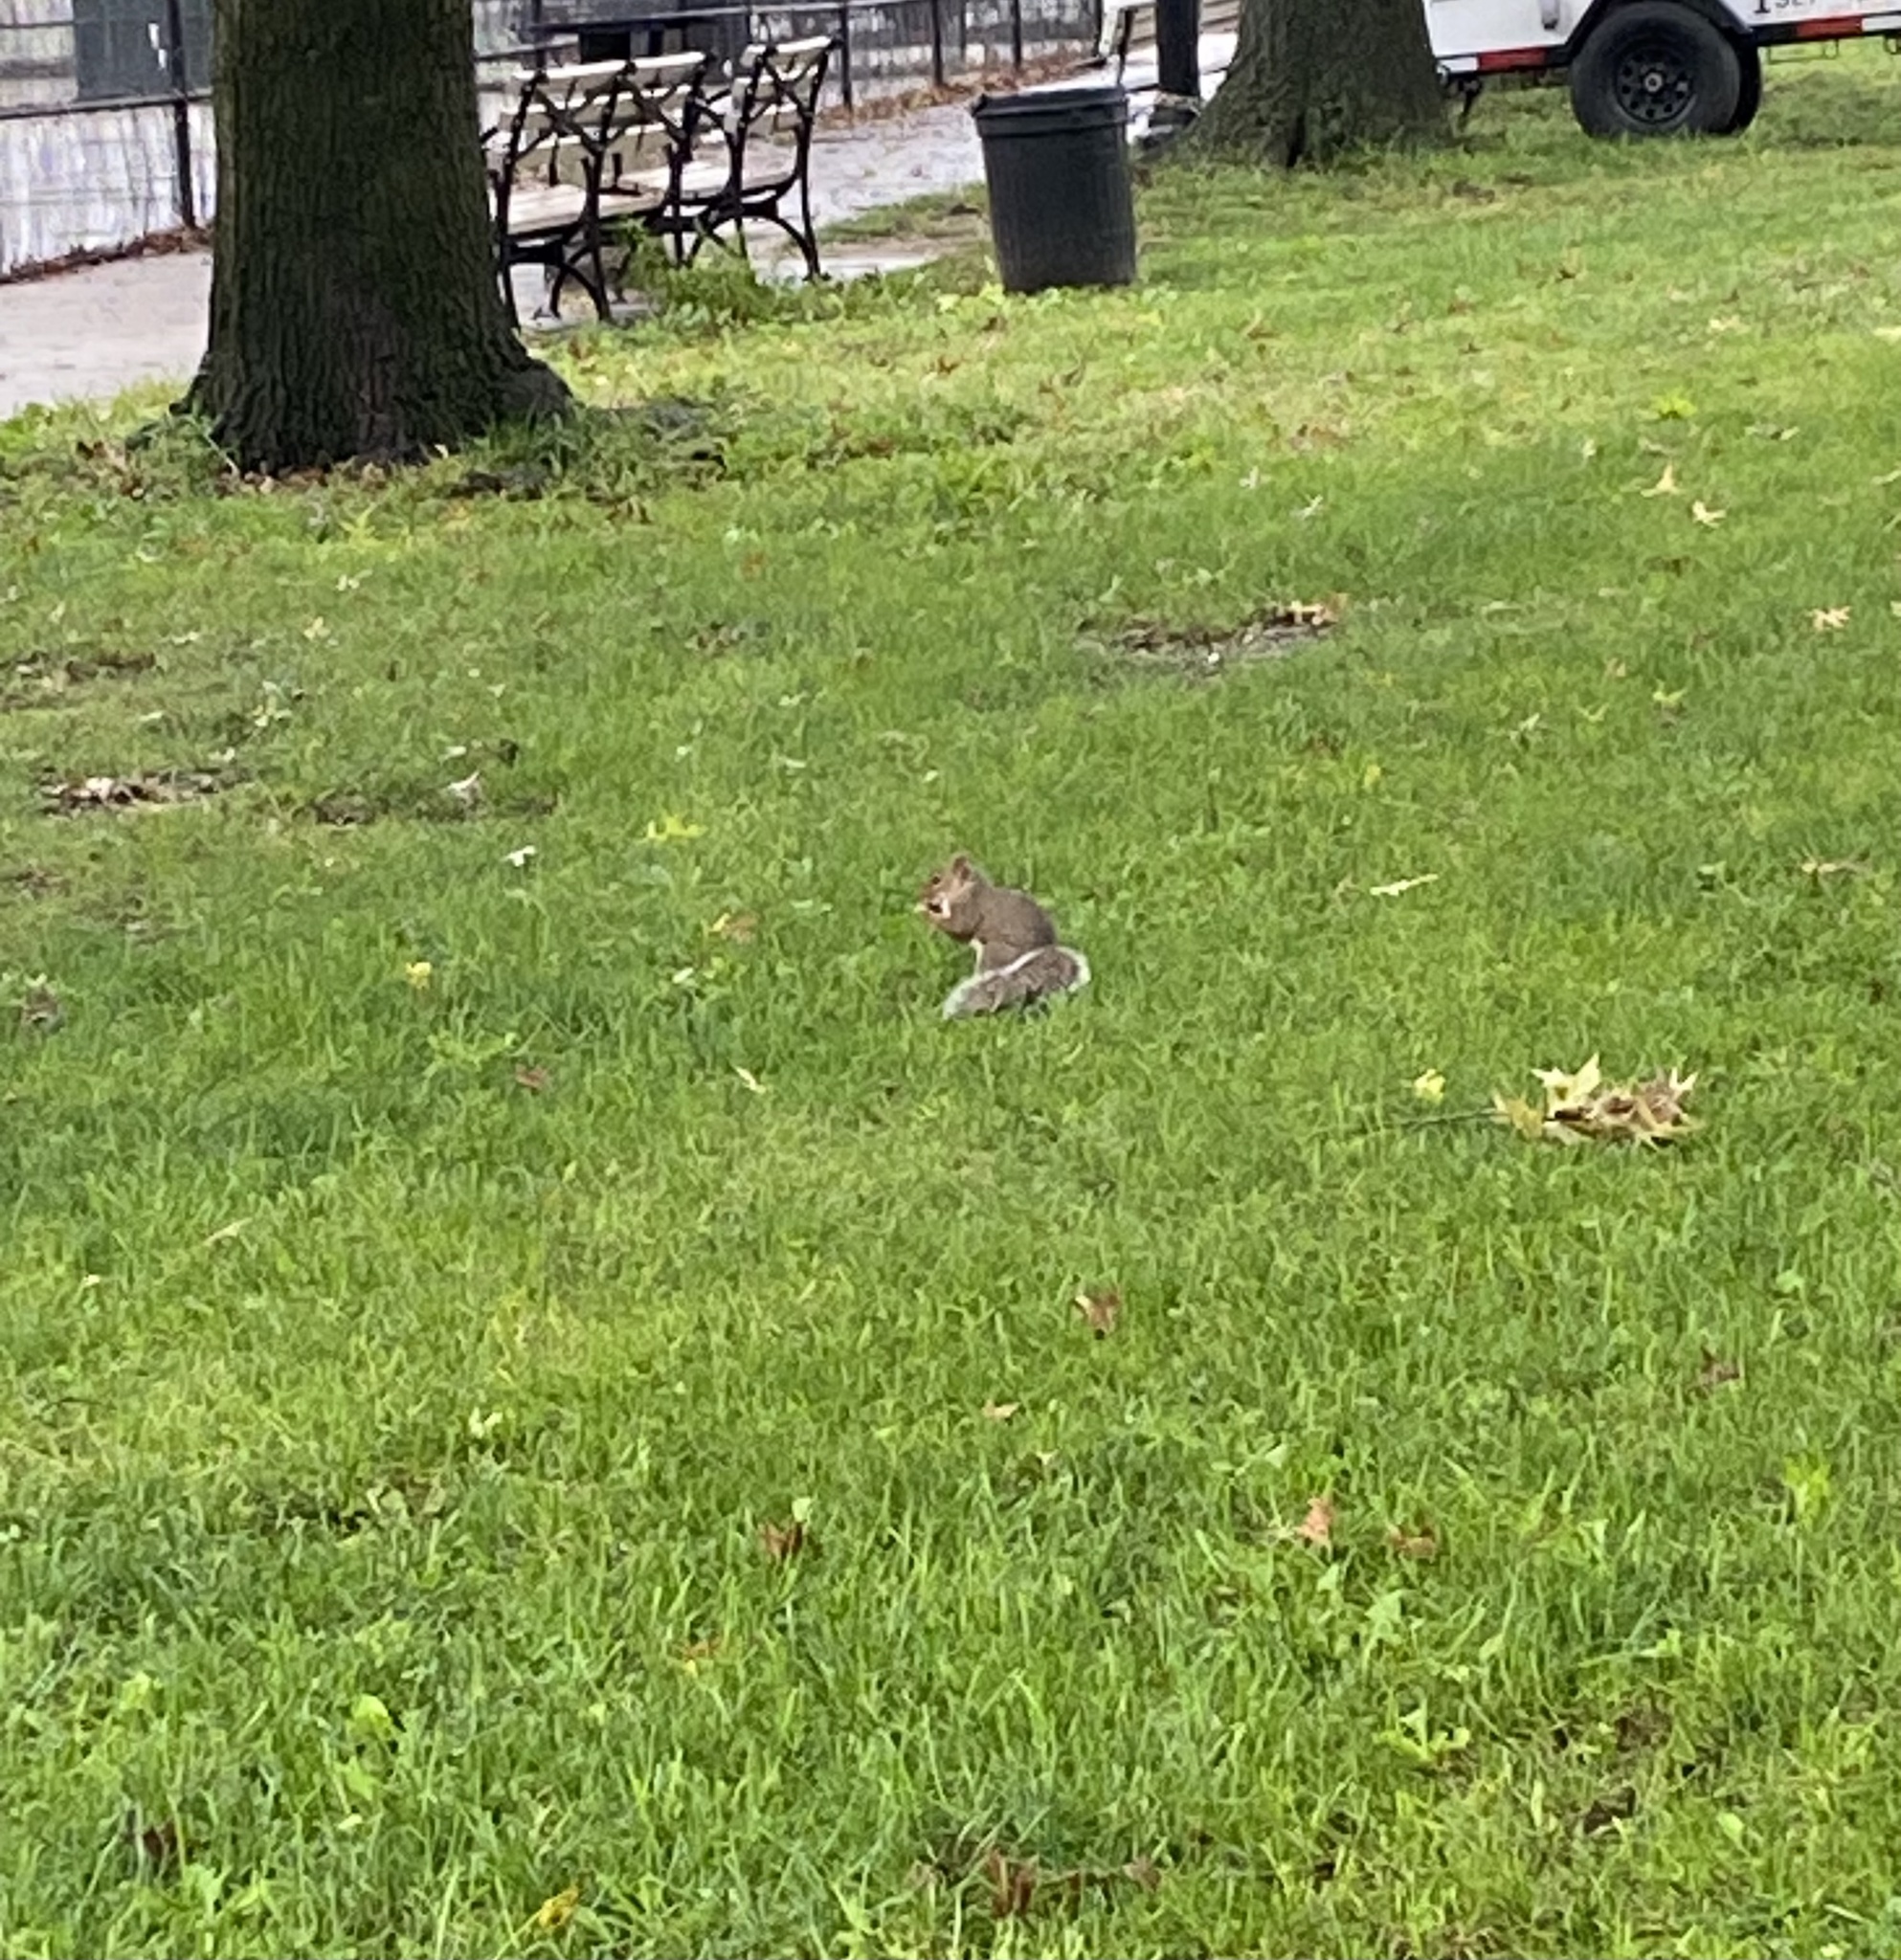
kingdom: Animalia
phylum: Chordata
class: Mammalia
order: Rodentia
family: Sciuridae
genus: Sciurus
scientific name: Sciurus carolinensis
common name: Eastern gray squirrel
